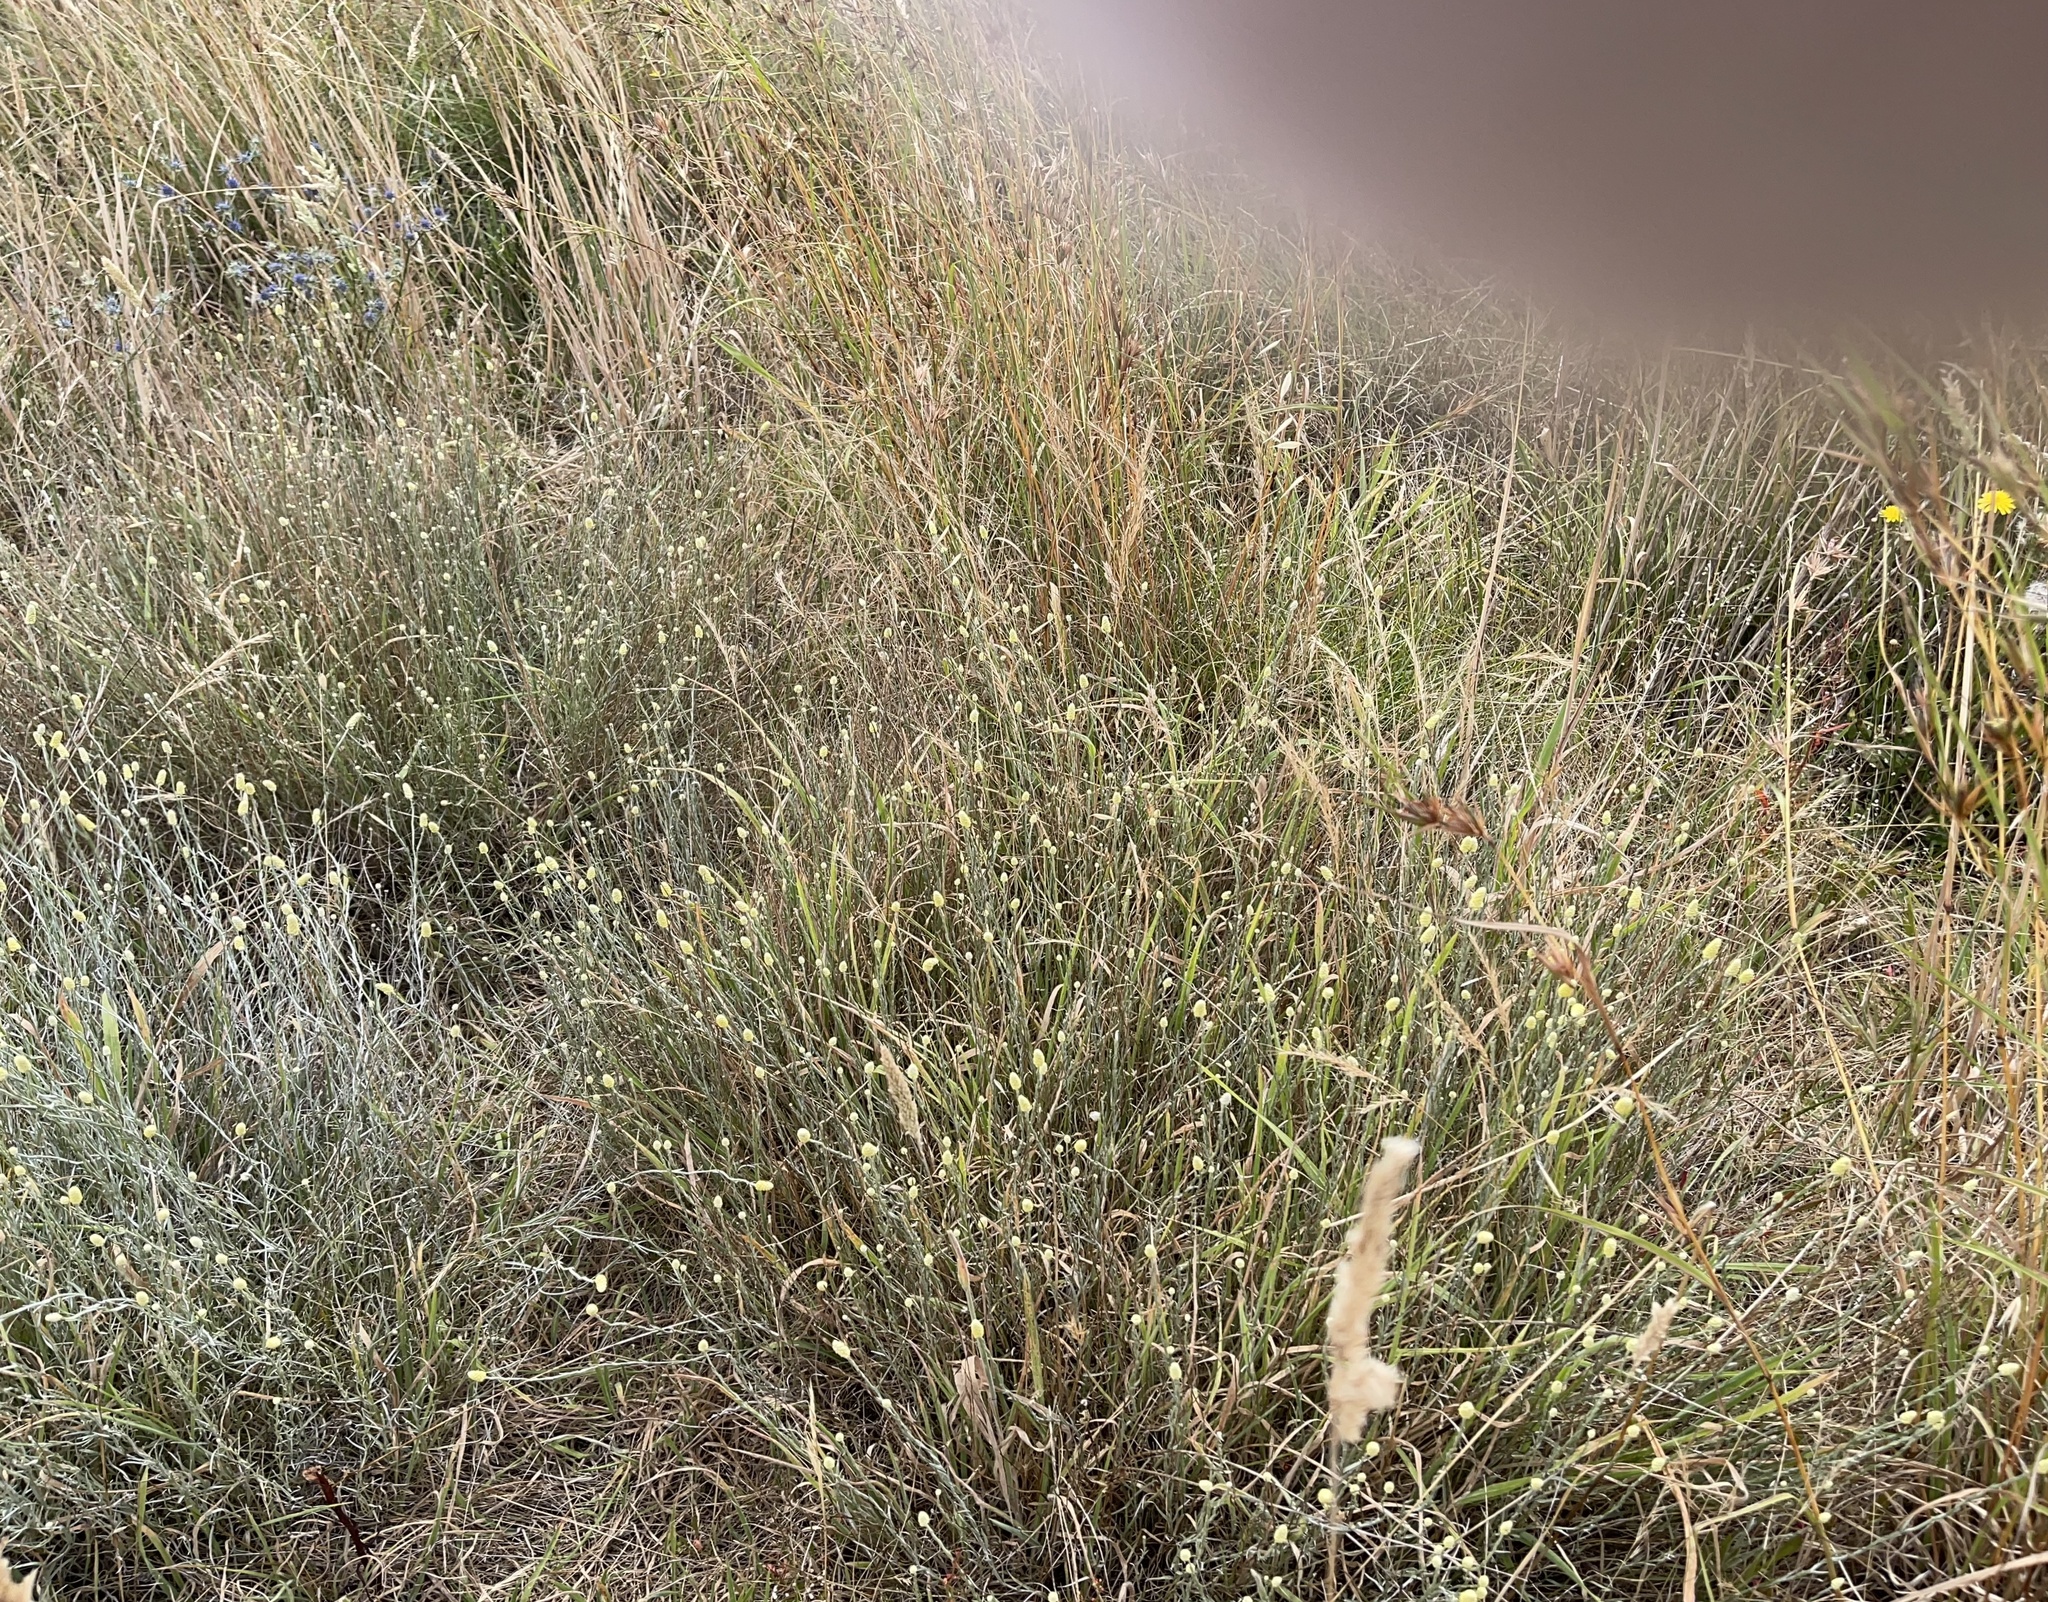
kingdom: Plantae
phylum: Tracheophyta
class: Magnoliopsida
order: Asterales
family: Asteraceae
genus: Calocephalus
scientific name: Calocephalus citreus
